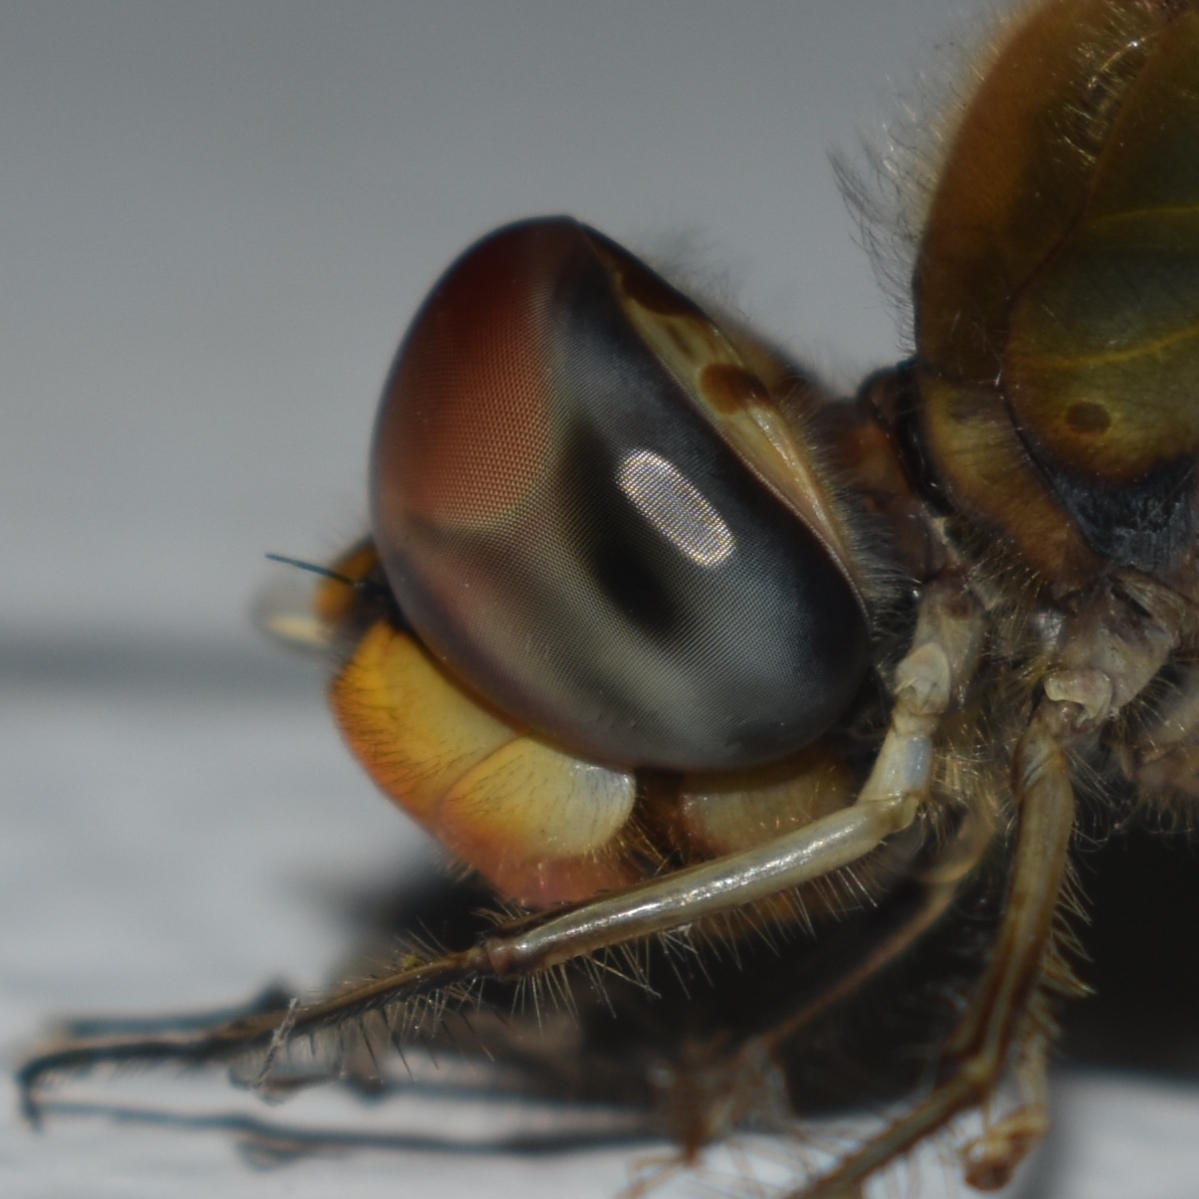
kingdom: Animalia
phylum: Arthropoda
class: Insecta
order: Odonata
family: Libellulidae
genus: Pantala
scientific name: Pantala flavescens
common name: Wandering glider
